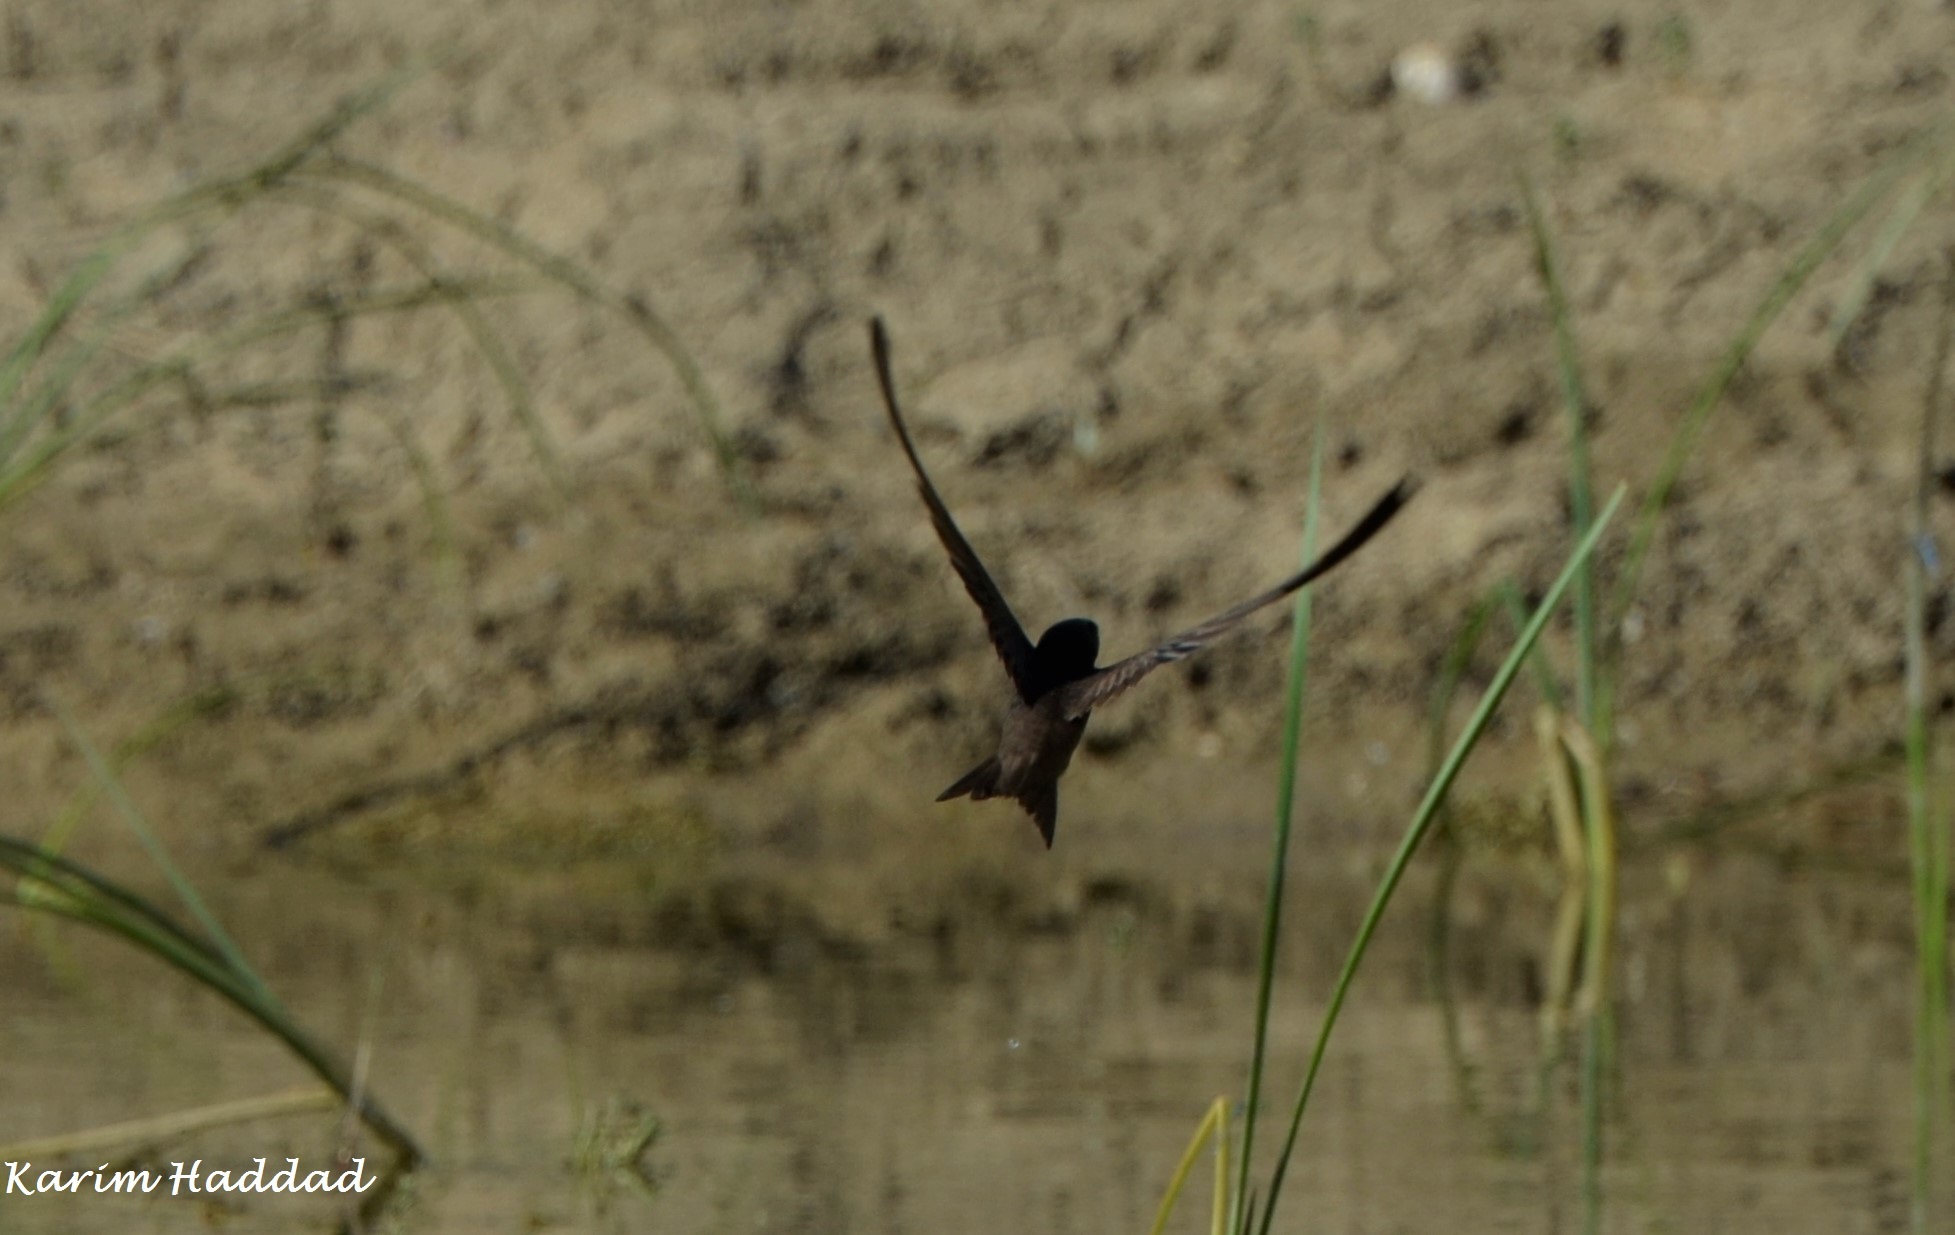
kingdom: Animalia
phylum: Chordata
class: Aves
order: Apodiformes
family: Apodidae
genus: Apus
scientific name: Apus apus
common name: Common swift
